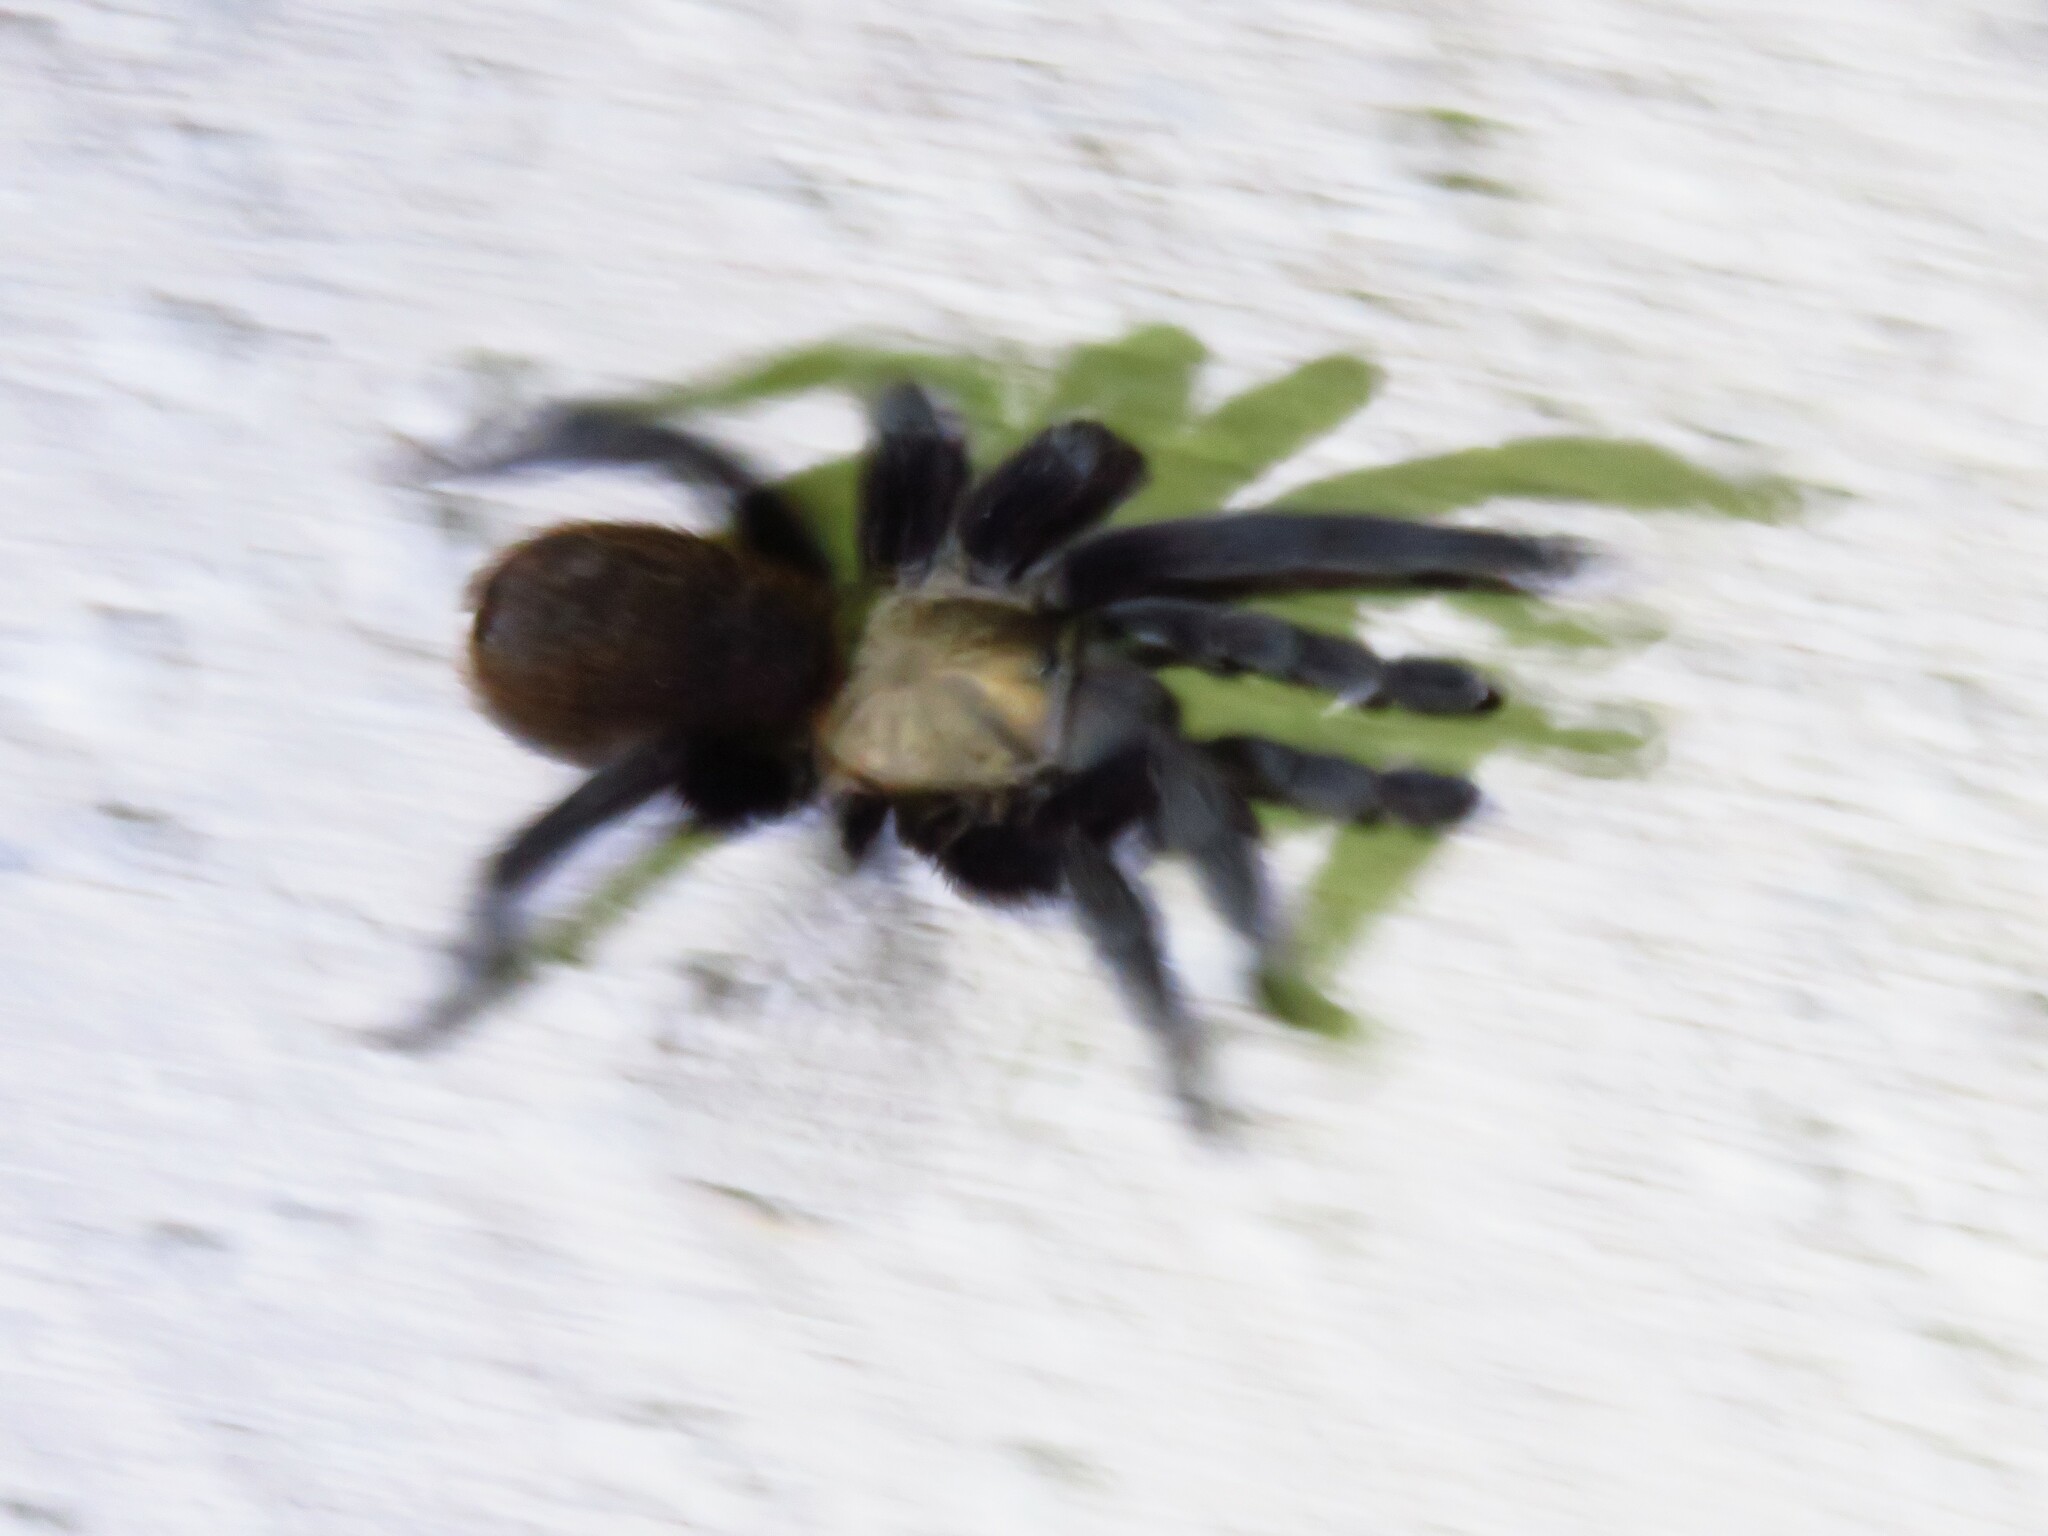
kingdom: Animalia
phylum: Arthropoda
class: Arachnida
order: Araneae
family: Theraphosidae
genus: Aphonopelma
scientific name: Aphonopelma anax
